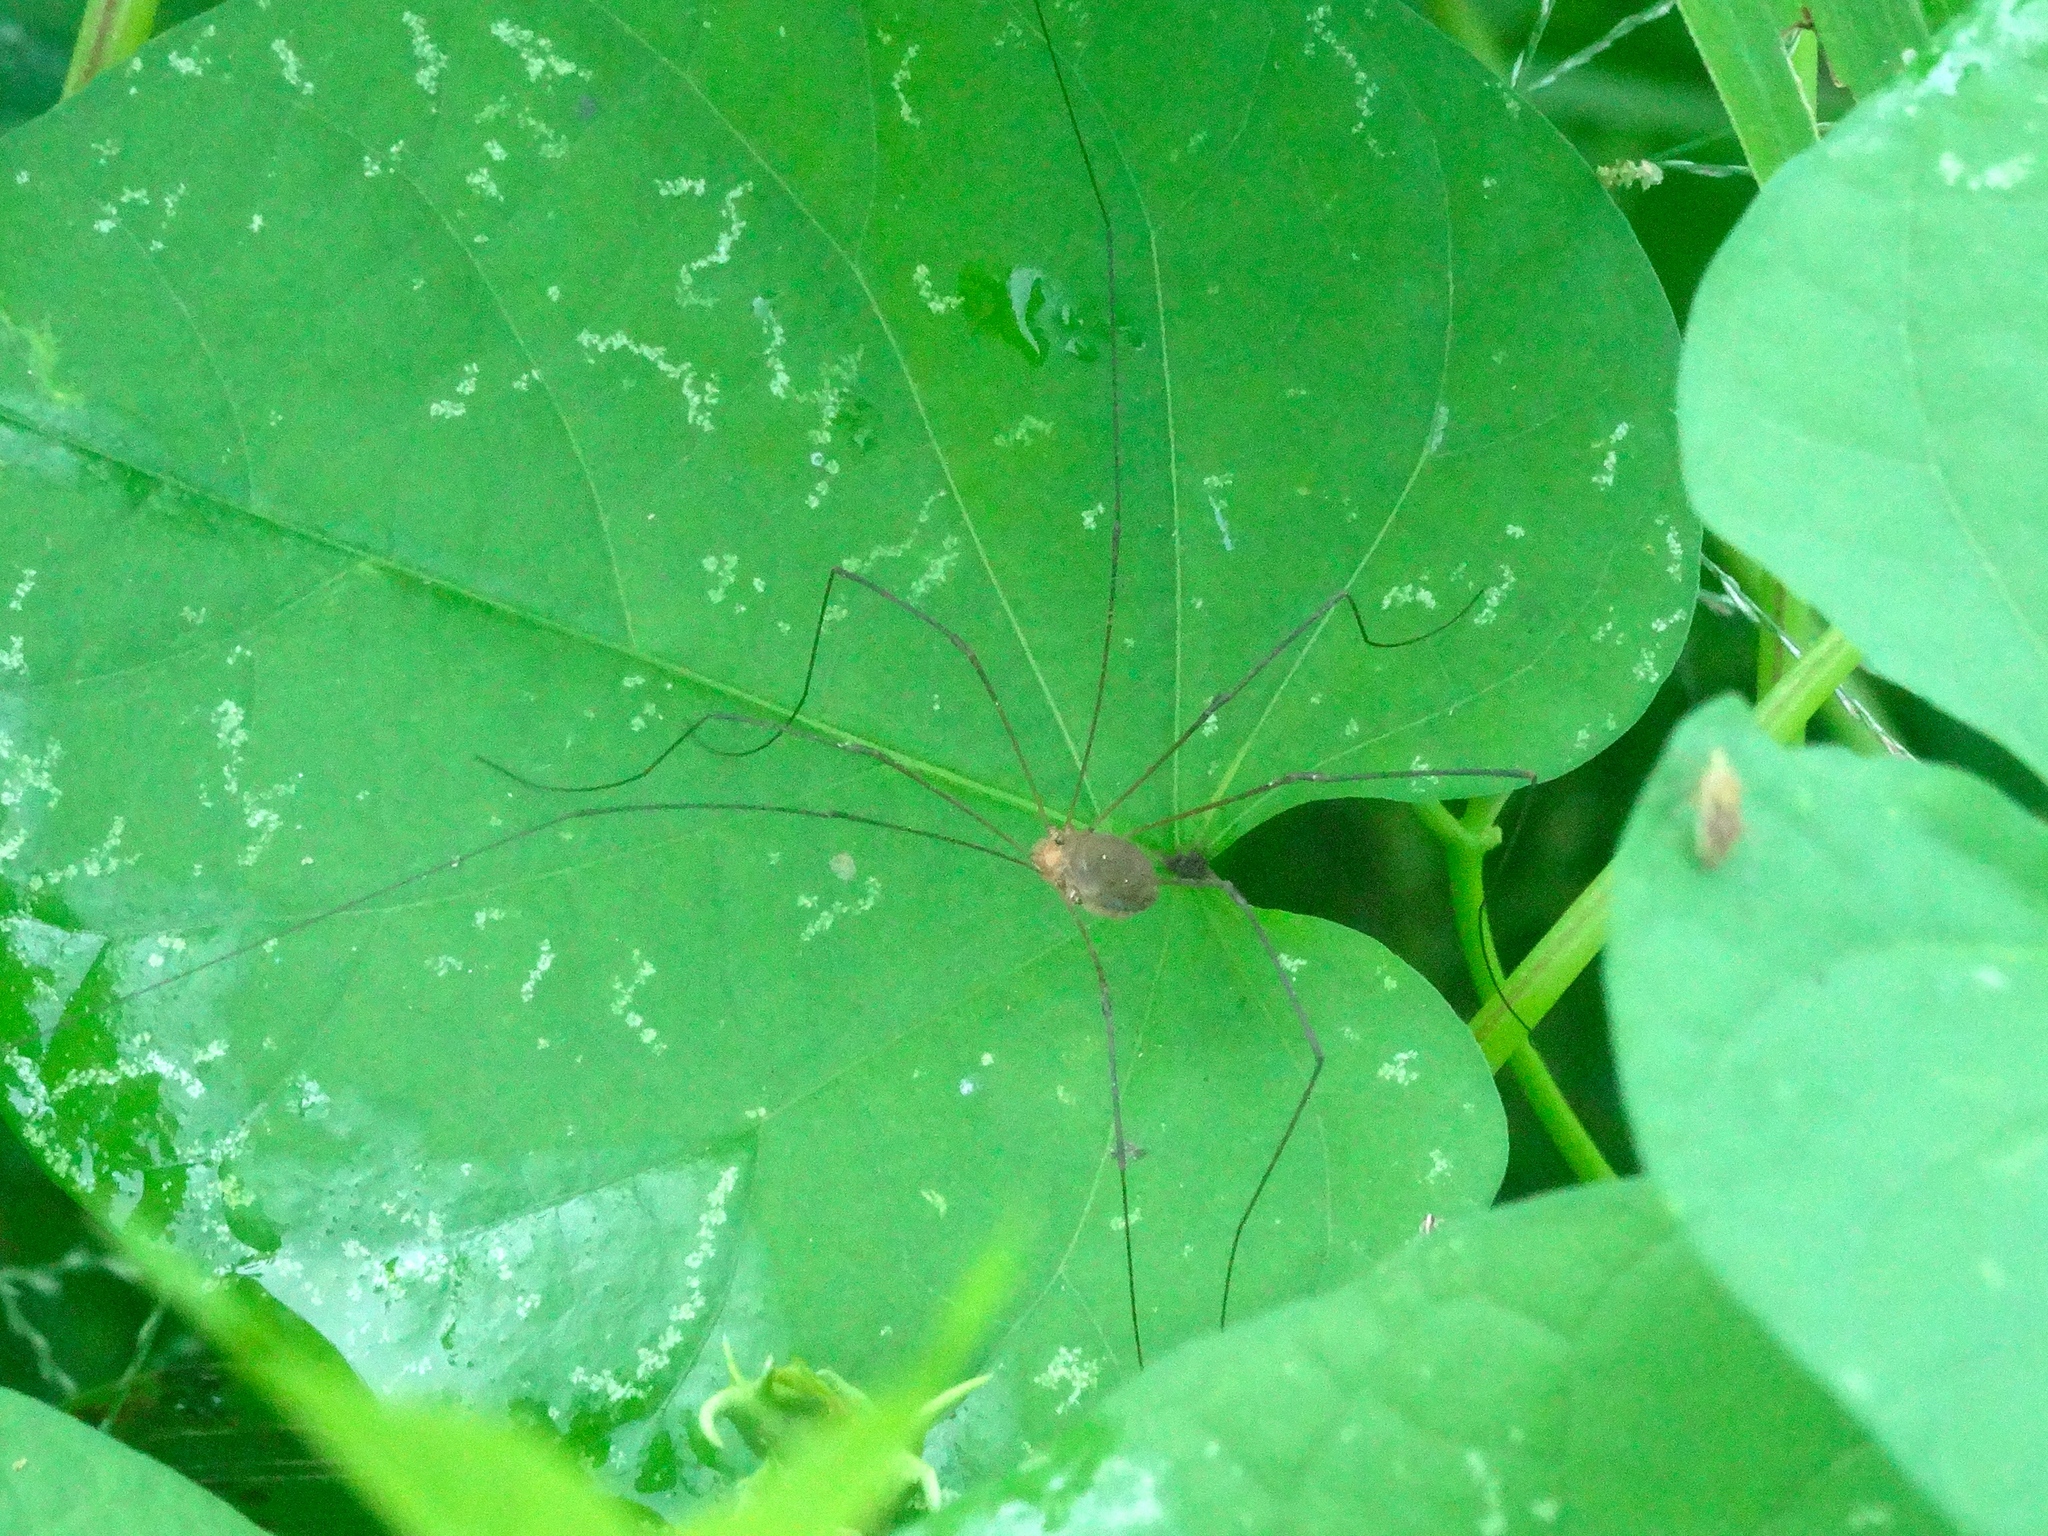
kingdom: Animalia
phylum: Arthropoda
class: Arachnida
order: Opiliones
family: Sclerosomatidae
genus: Leiobunum
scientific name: Leiobunum
